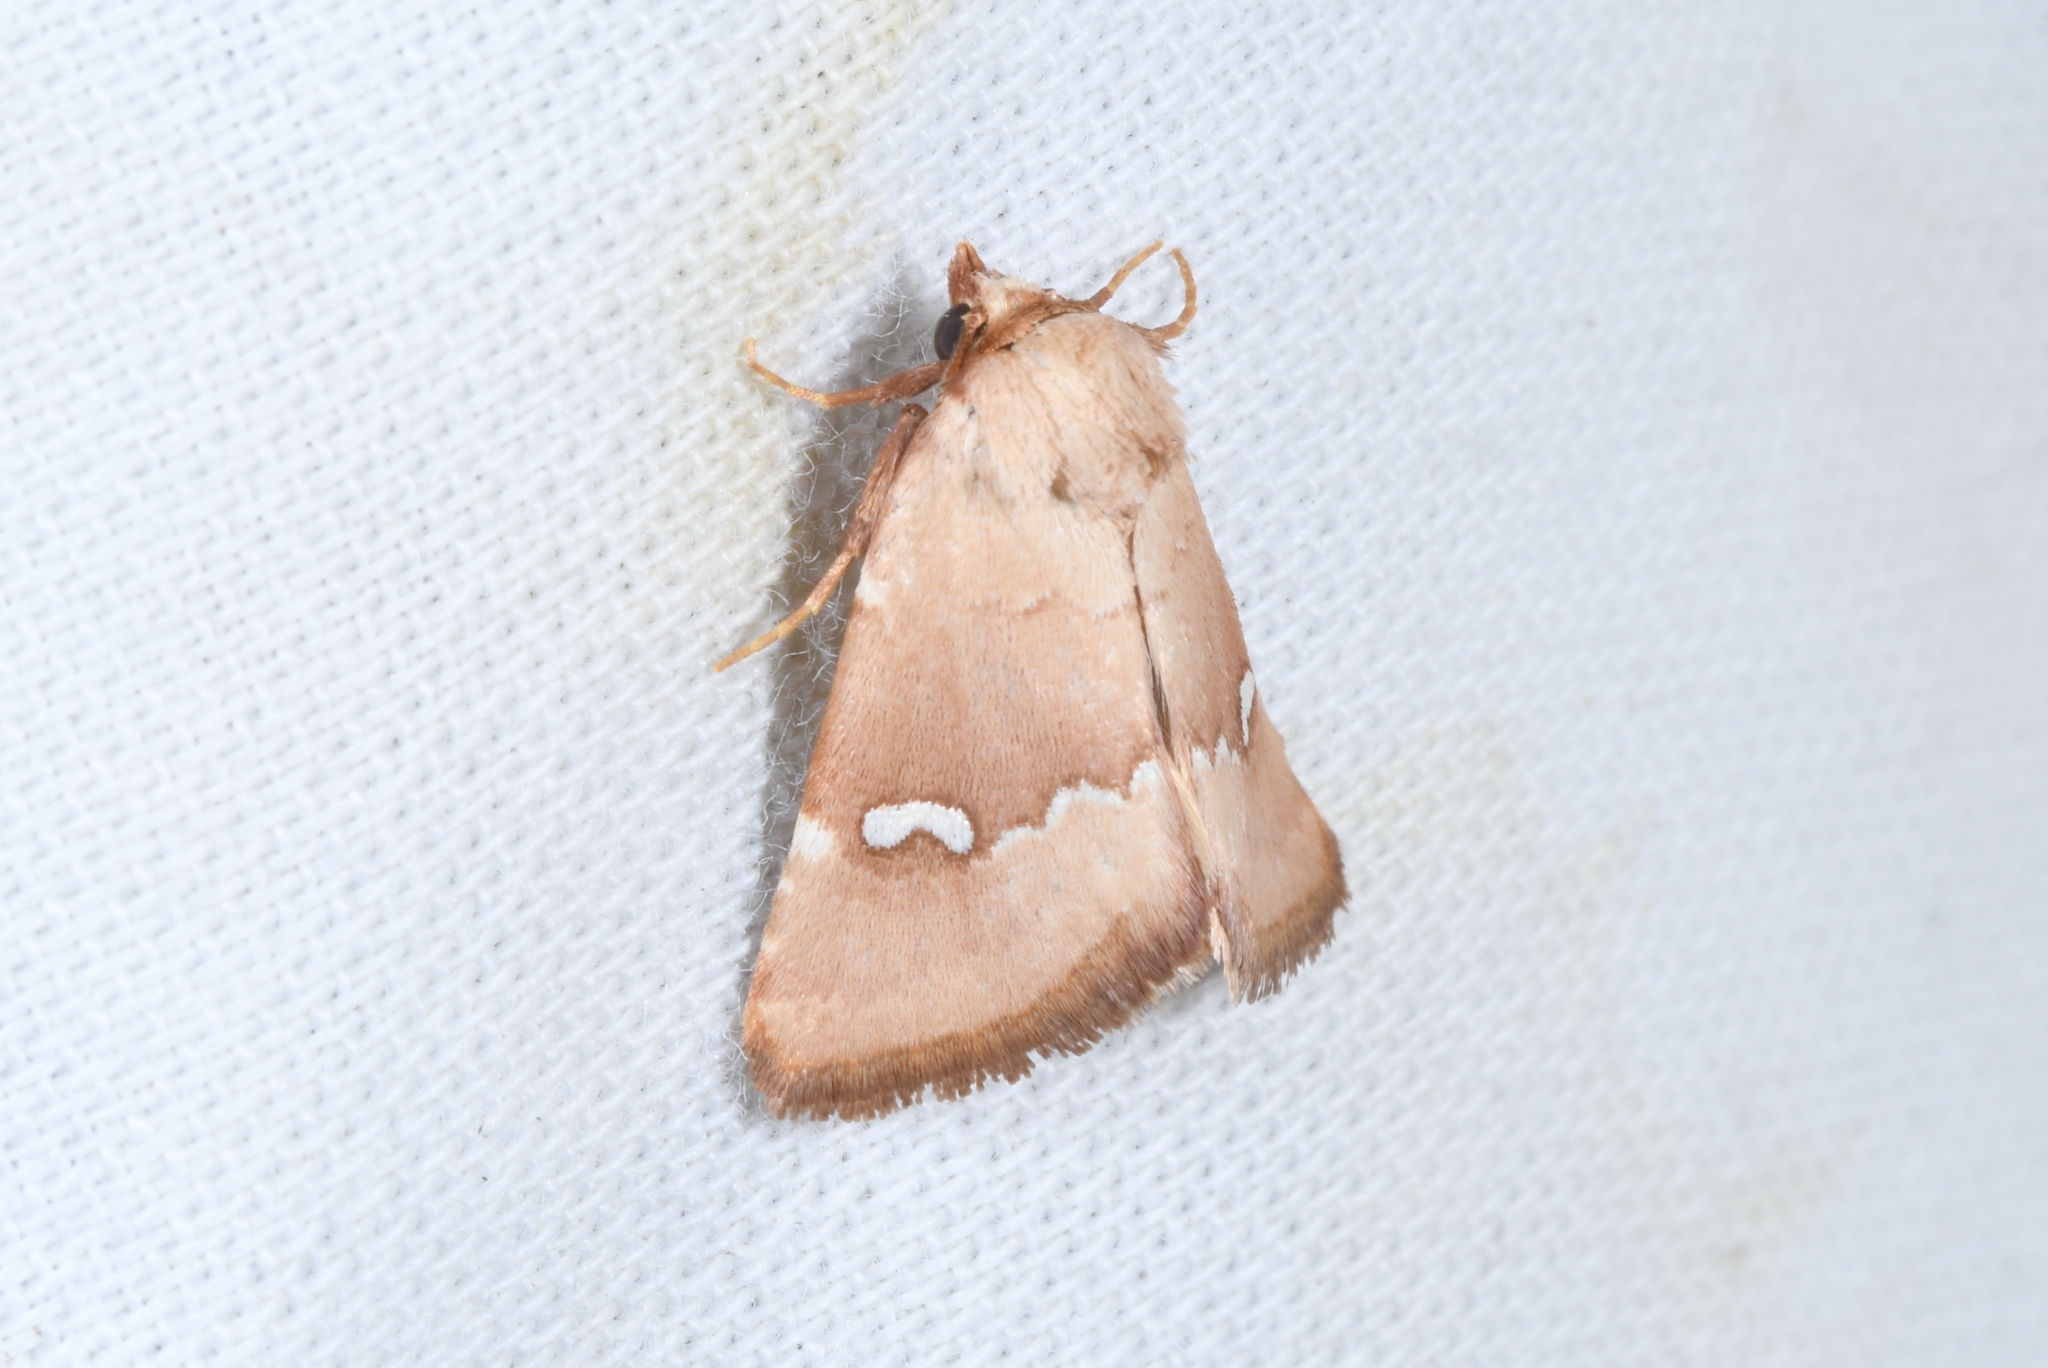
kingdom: Animalia
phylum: Arthropoda
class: Insecta
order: Lepidoptera
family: Noctuidae
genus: Haemerosia
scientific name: Haemerosia renalis
